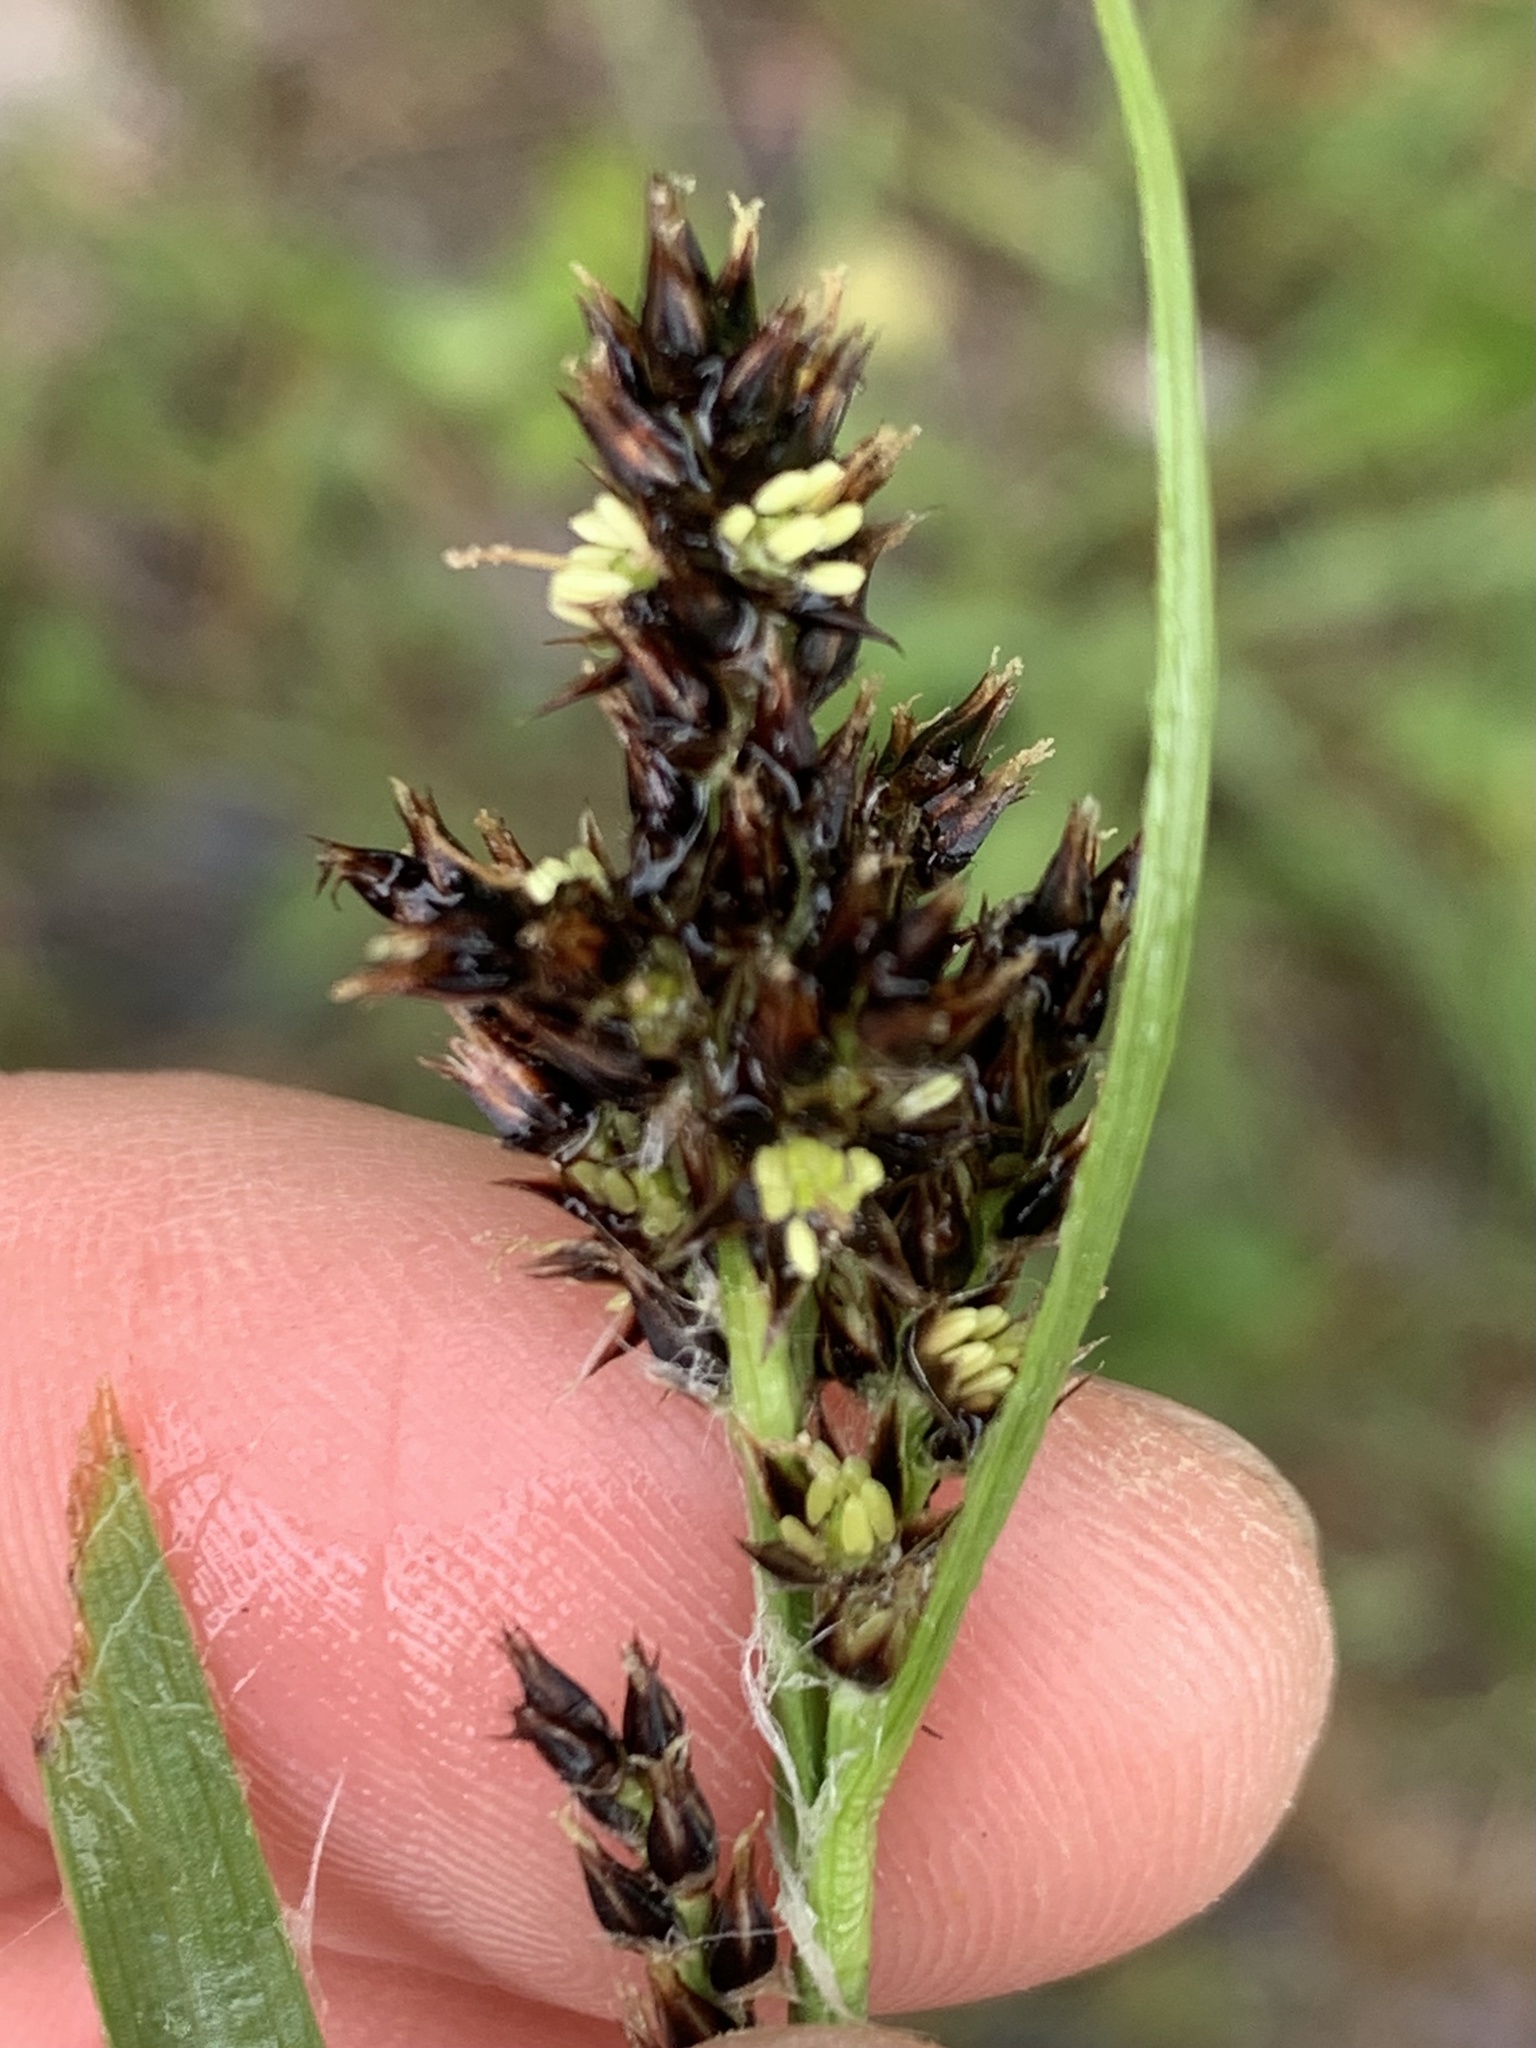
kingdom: Plantae
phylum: Tracheophyta
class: Liliopsida
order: Poales
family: Juncaceae
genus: Luzula
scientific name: Luzula campestris
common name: Field wood-rush
